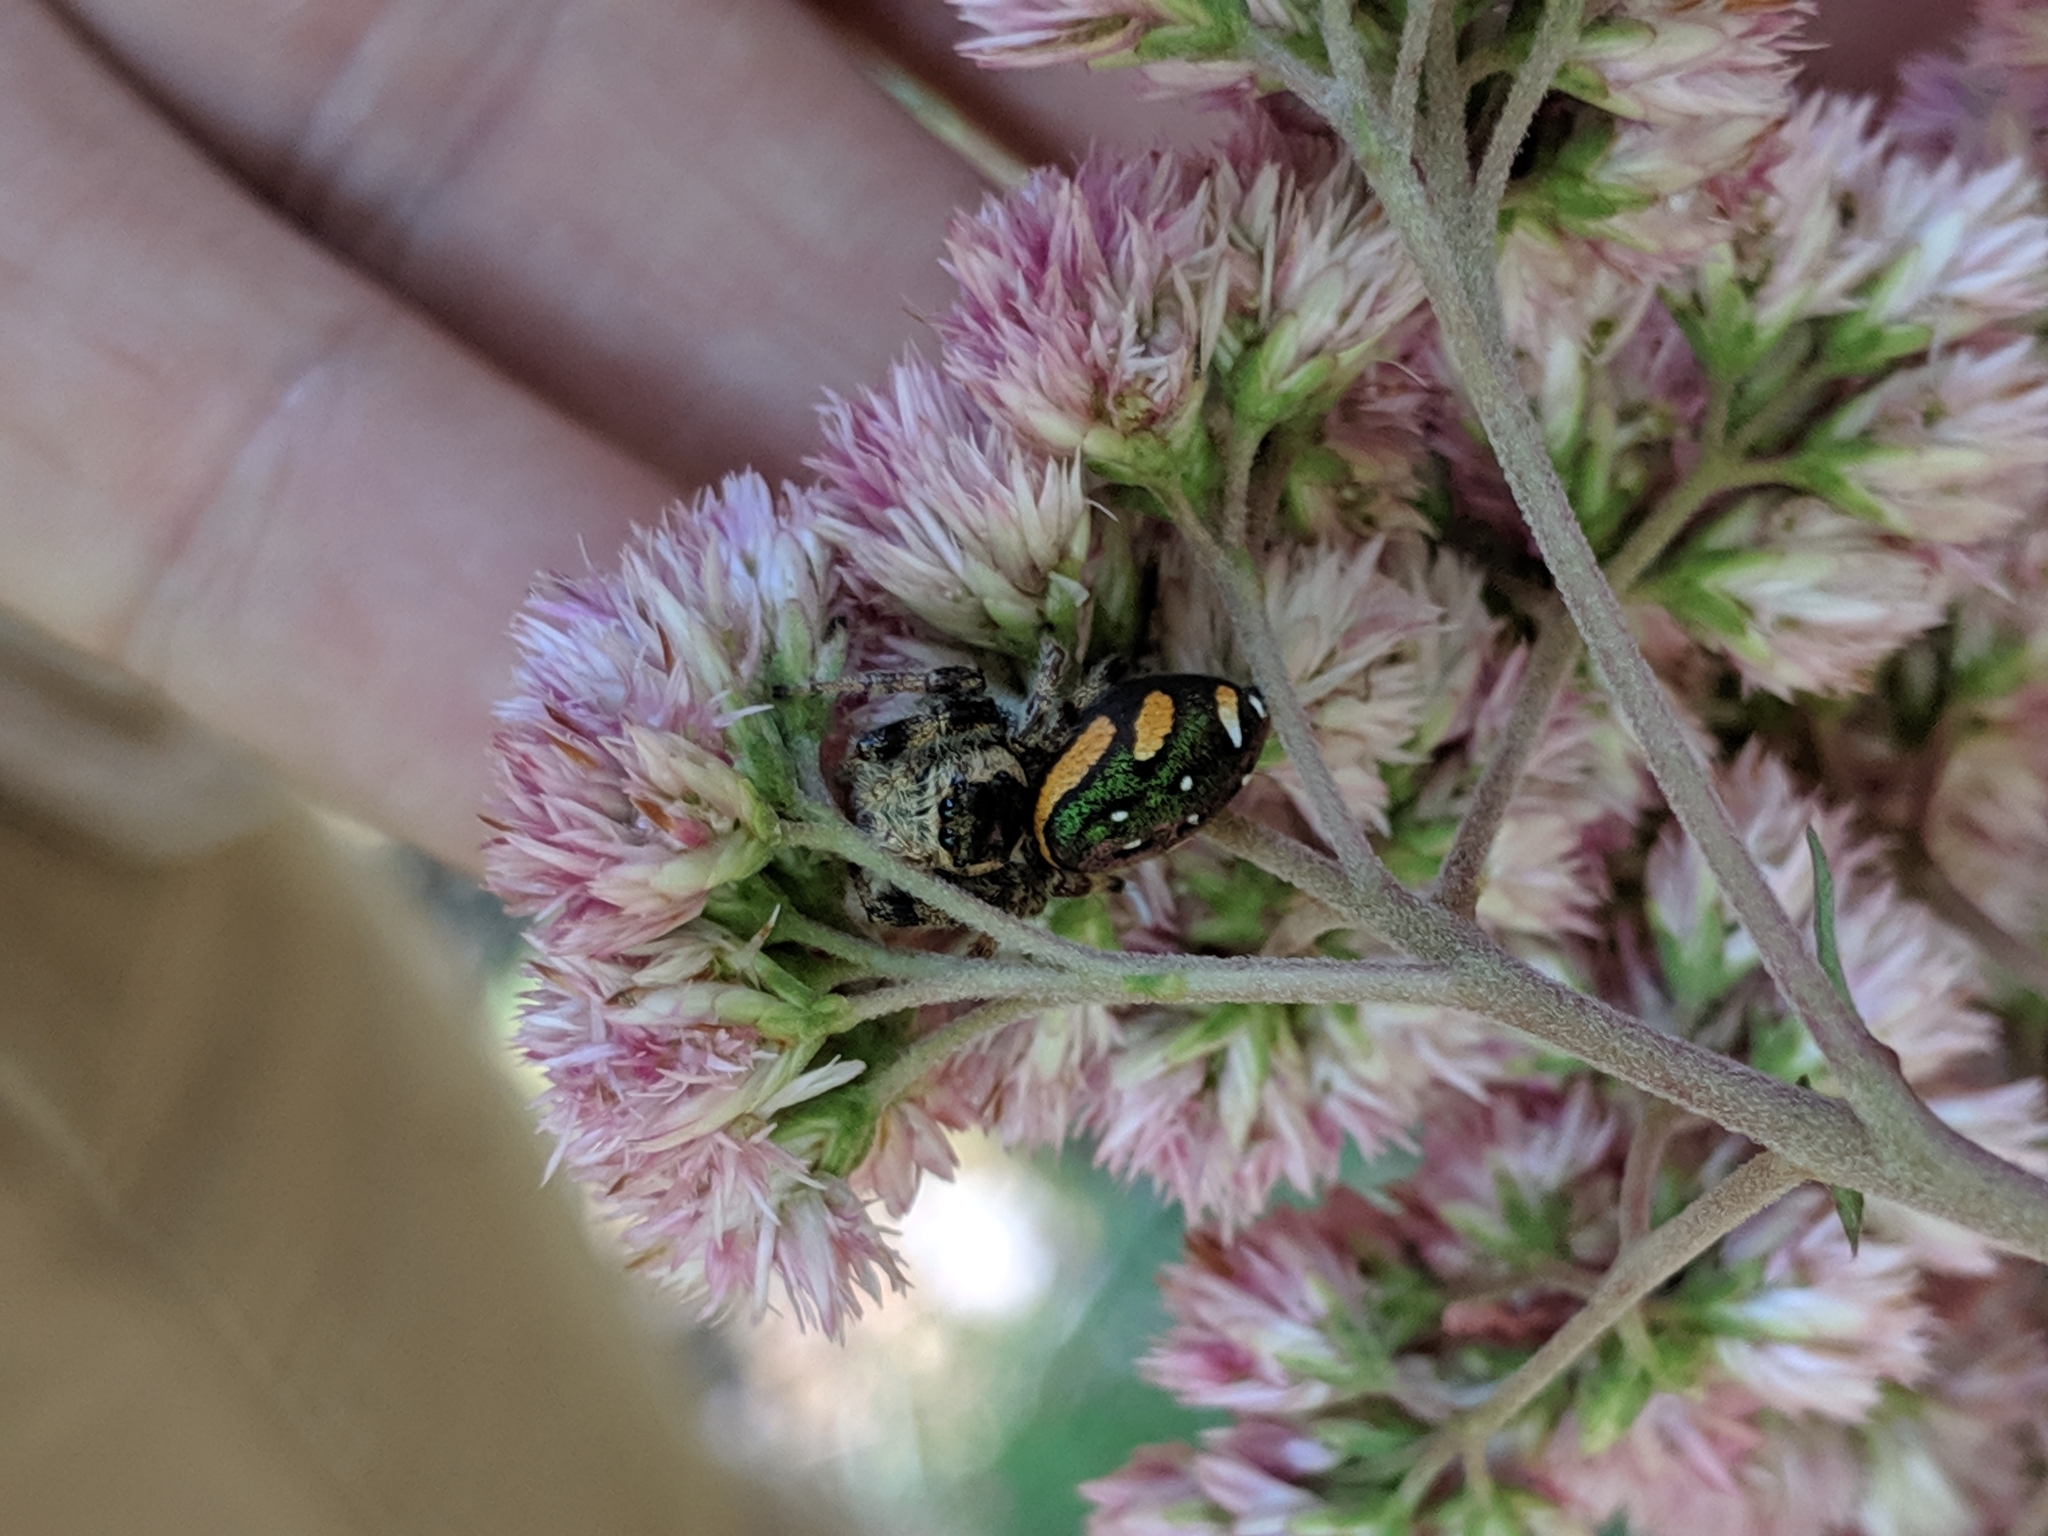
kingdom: Animalia
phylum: Arthropoda
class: Arachnida
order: Araneae
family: Salticidae
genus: Paraphidippus
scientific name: Paraphidippus aurantius
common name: Jumping spiders
